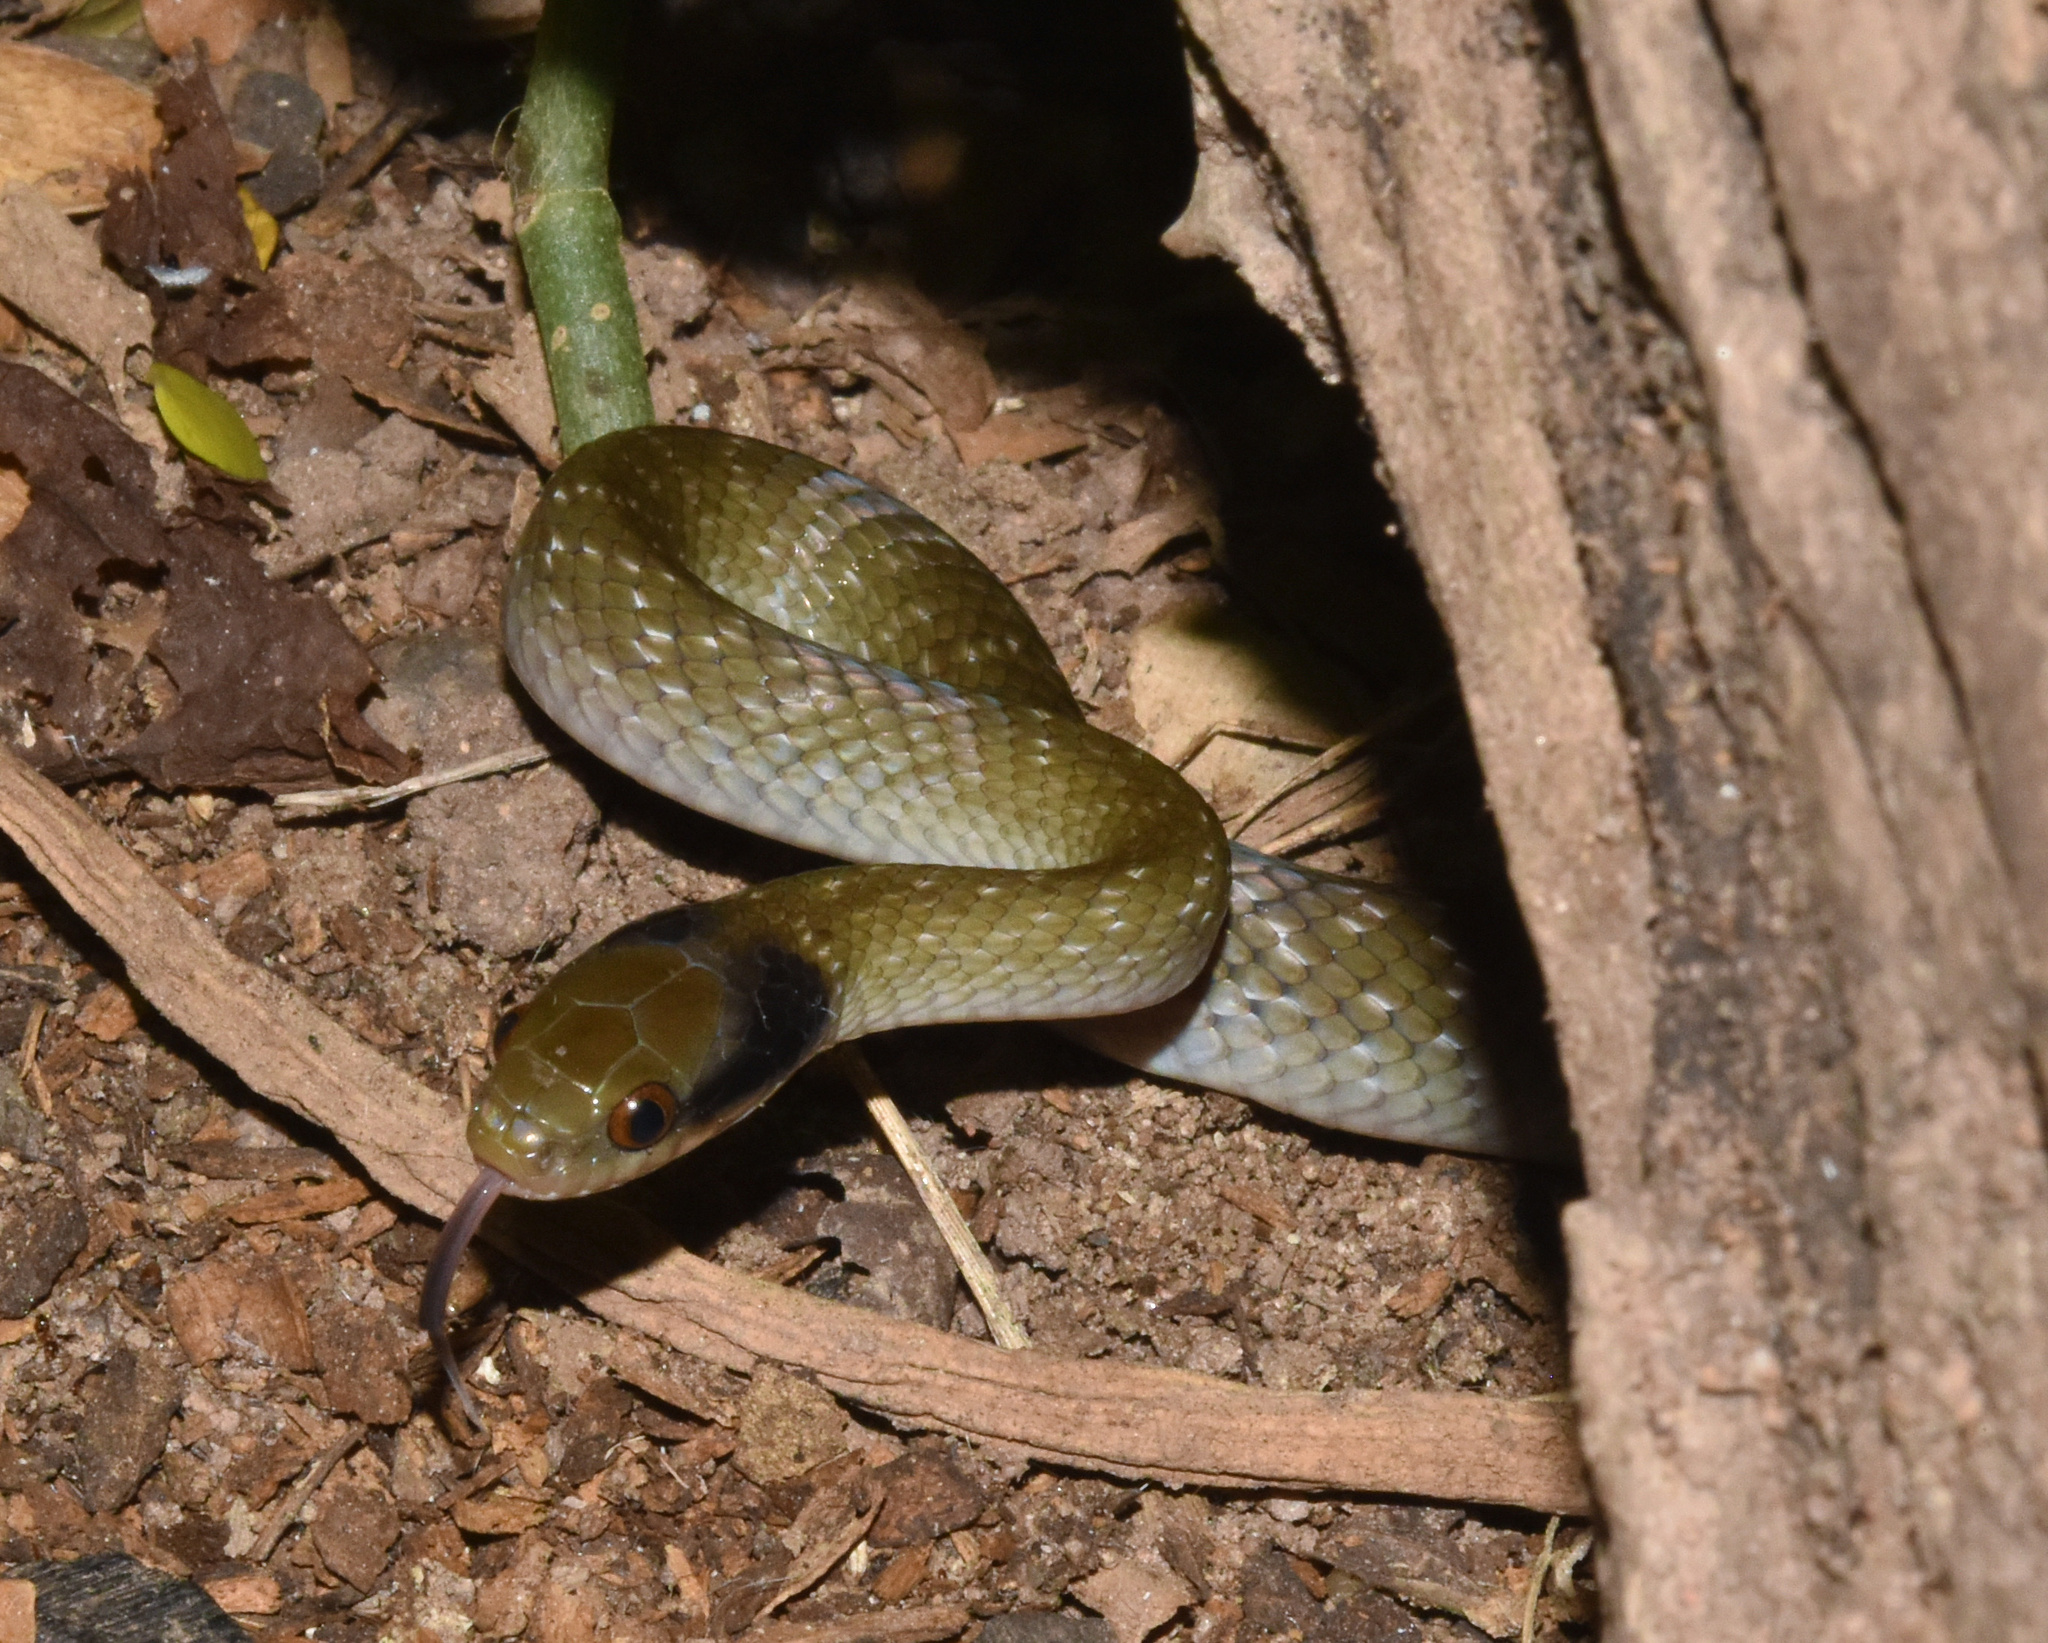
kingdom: Animalia
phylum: Chordata
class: Squamata
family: Colubridae
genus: Crotaphopeltis
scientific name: Crotaphopeltis hotamboeia
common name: Red-lipped snake
